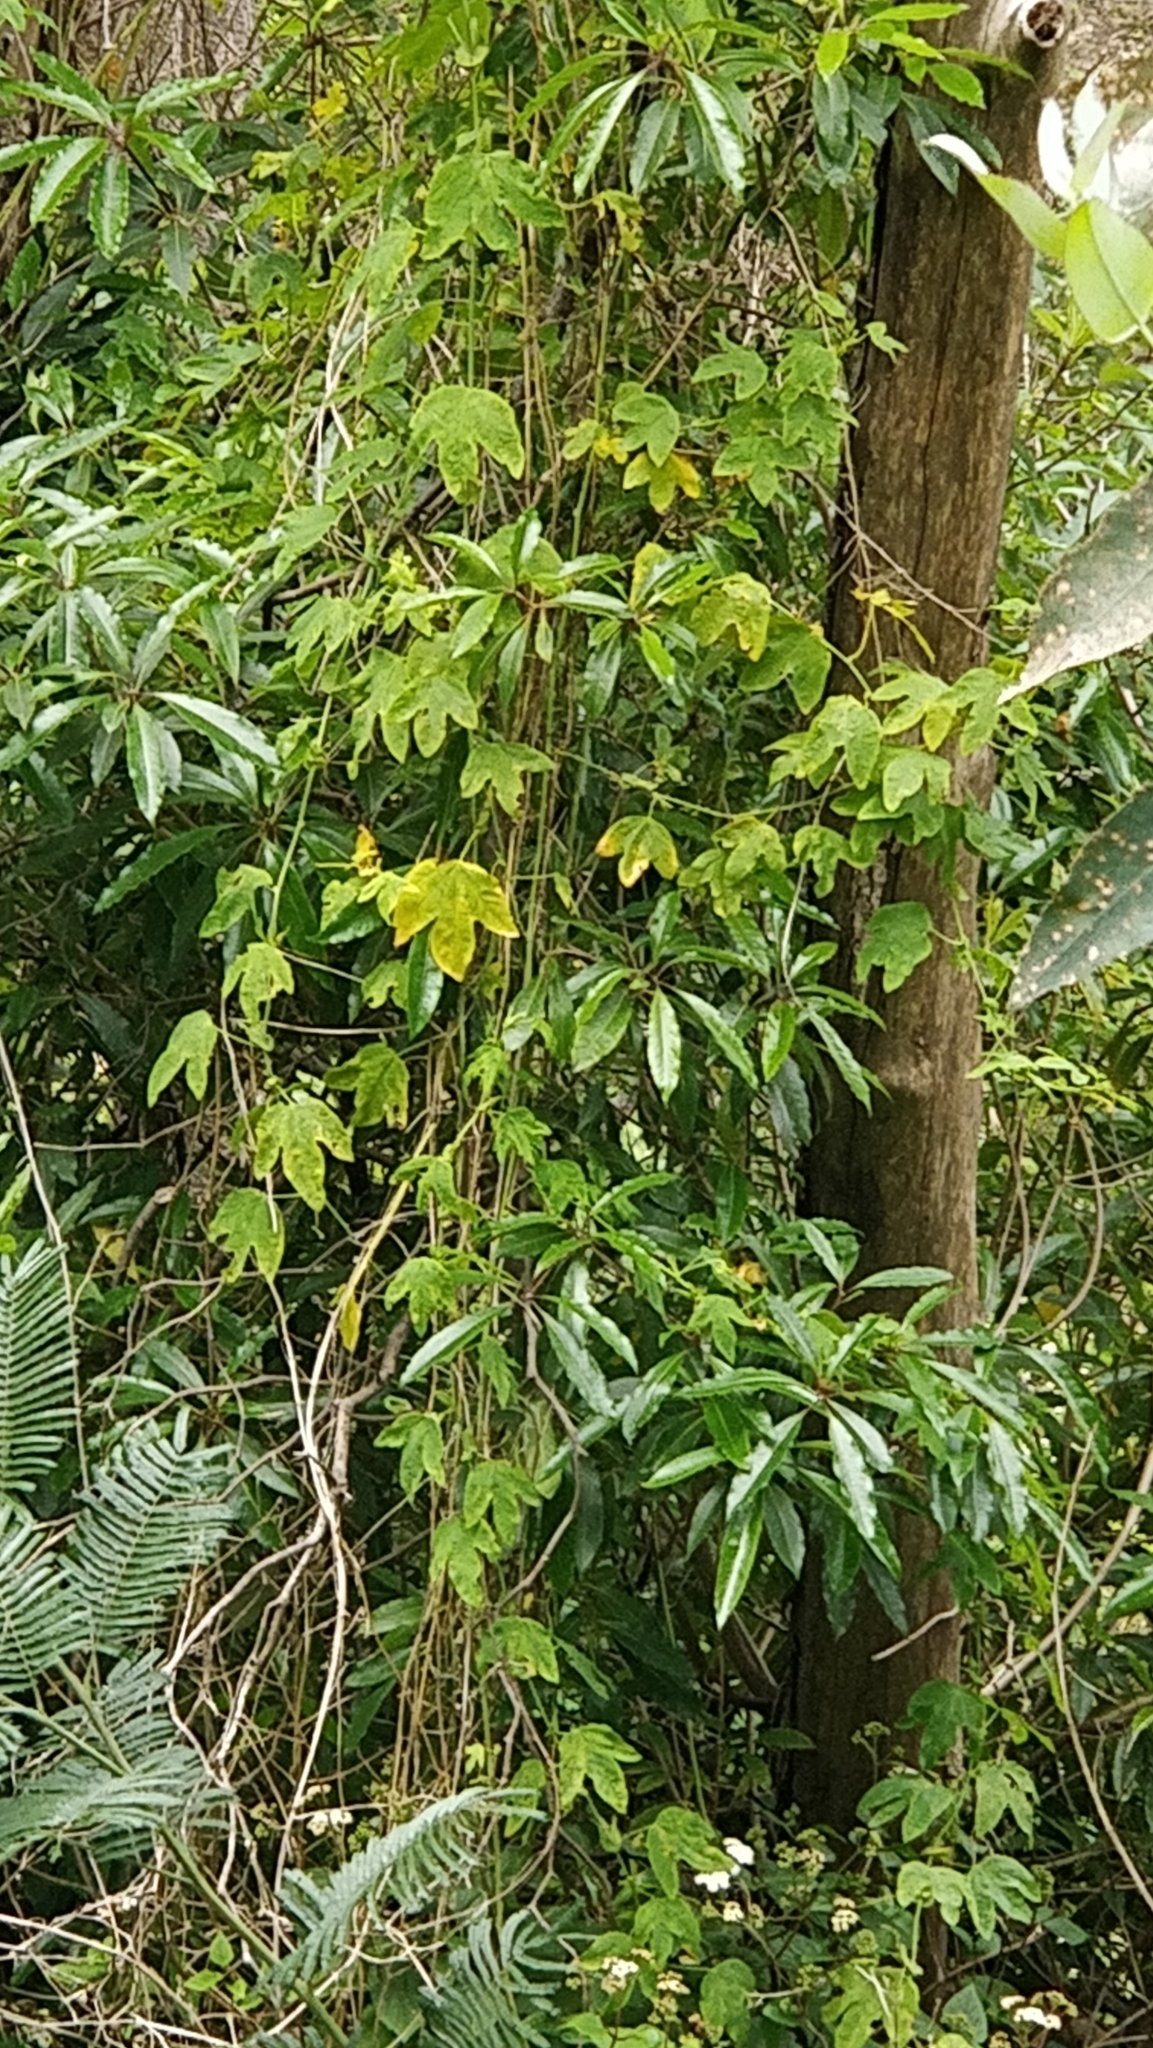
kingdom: Plantae
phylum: Tracheophyta
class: Magnoliopsida
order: Malpighiales
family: Passifloraceae
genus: Passiflora
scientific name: Passiflora tarminiana
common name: Banana poka
